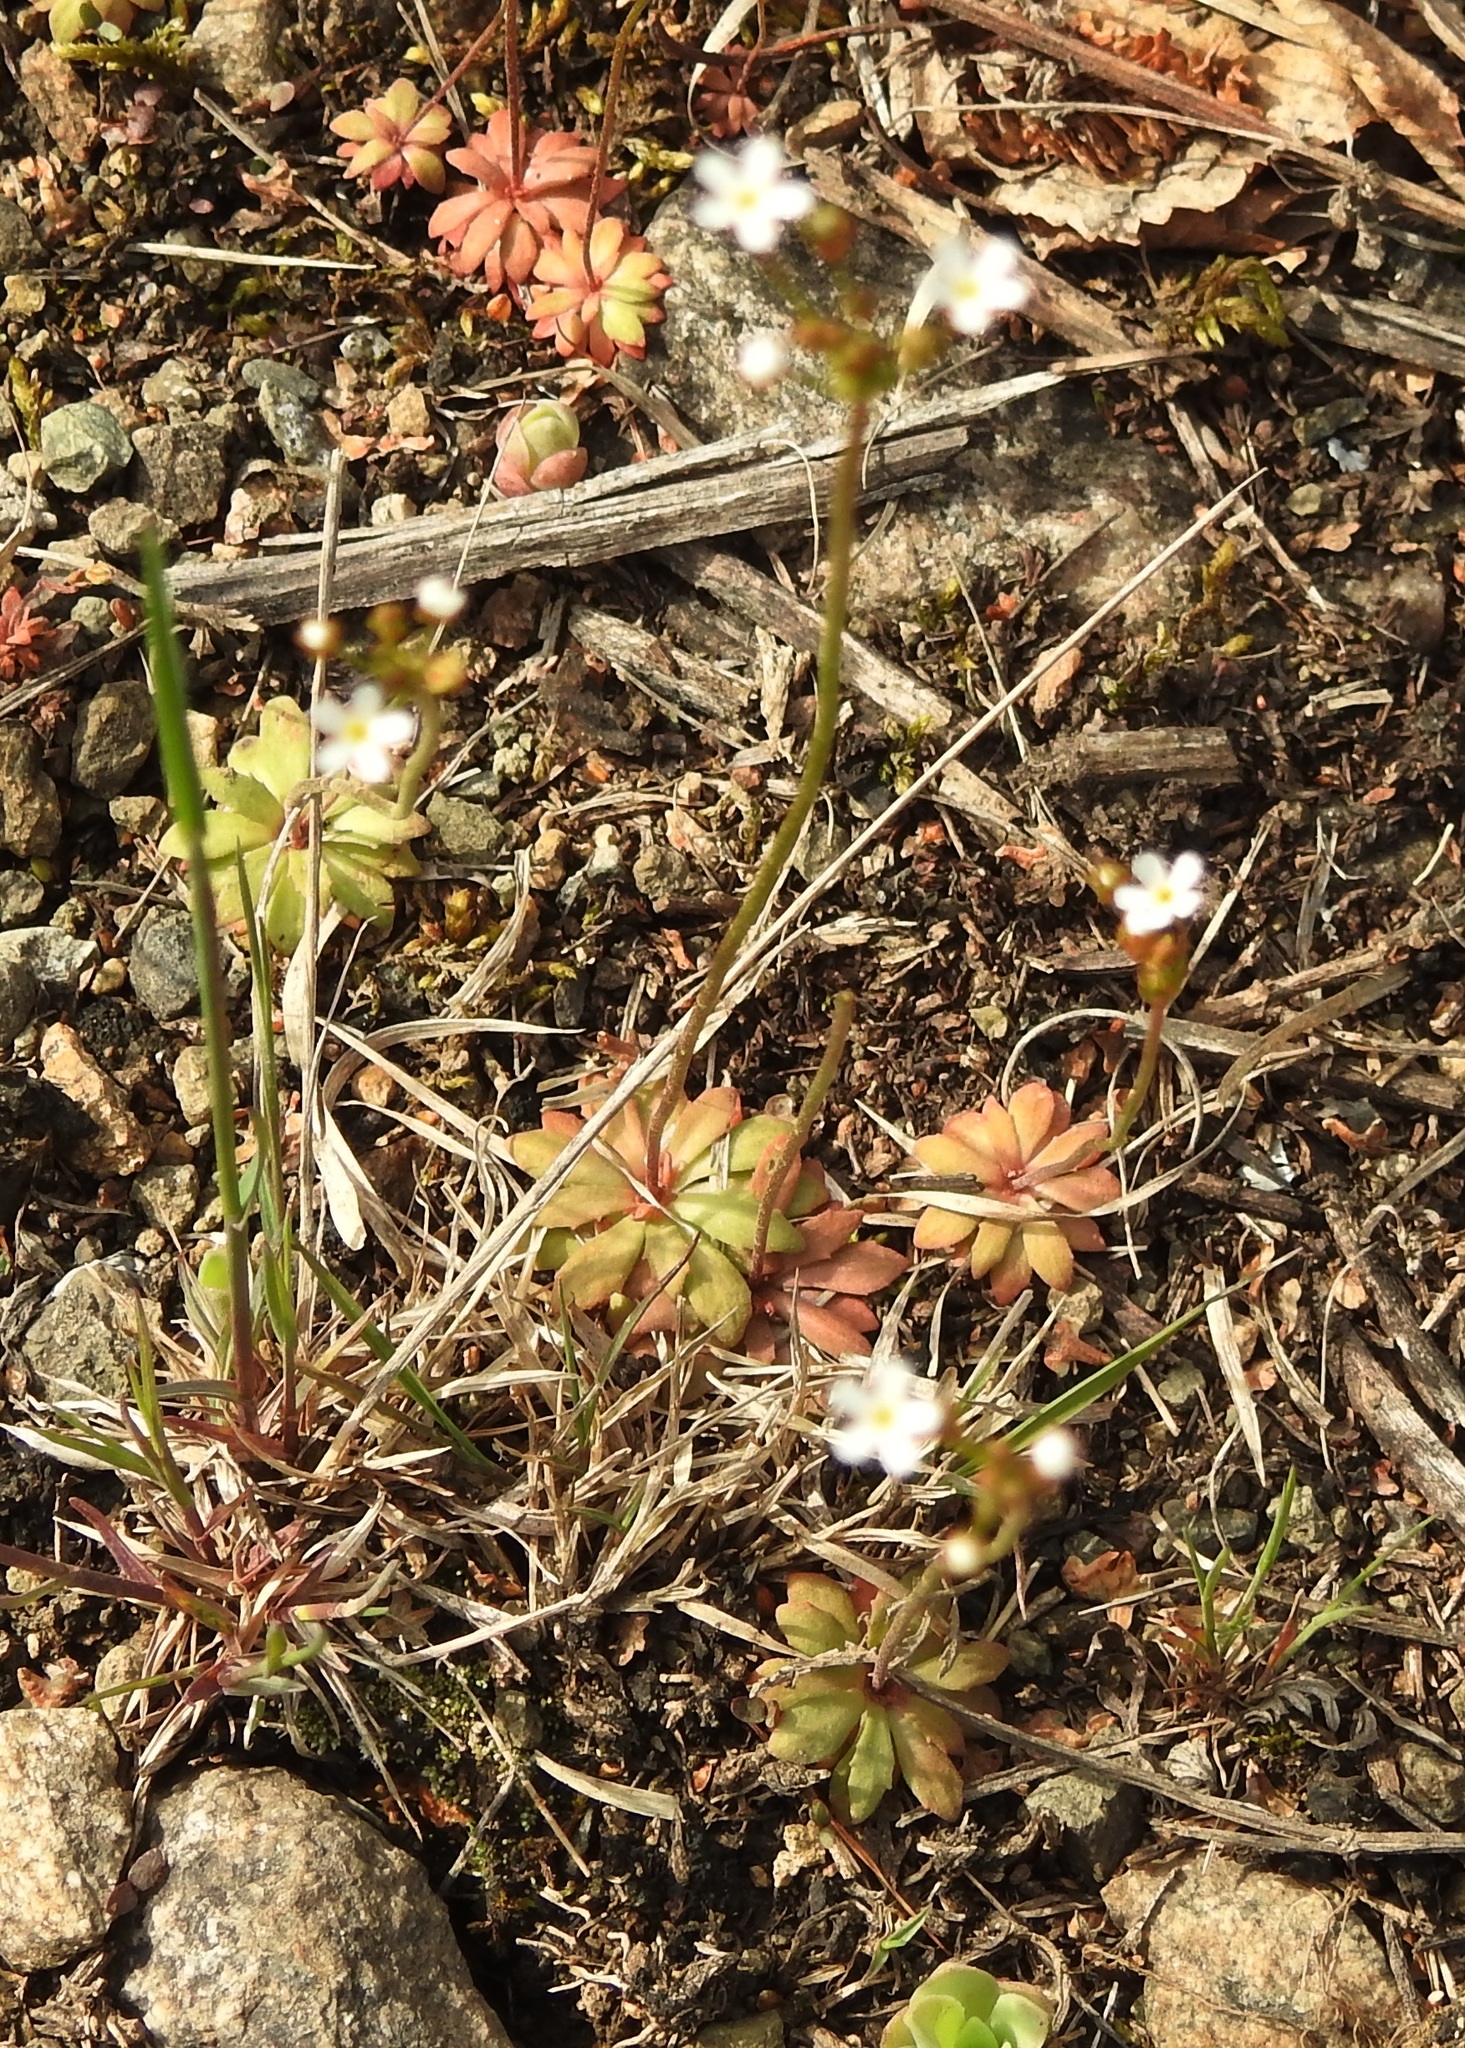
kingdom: Plantae
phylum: Tracheophyta
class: Magnoliopsida
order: Ericales
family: Primulaceae
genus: Androsace
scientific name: Androsace septentrionalis
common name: Hairy northern fairy-candelabra
